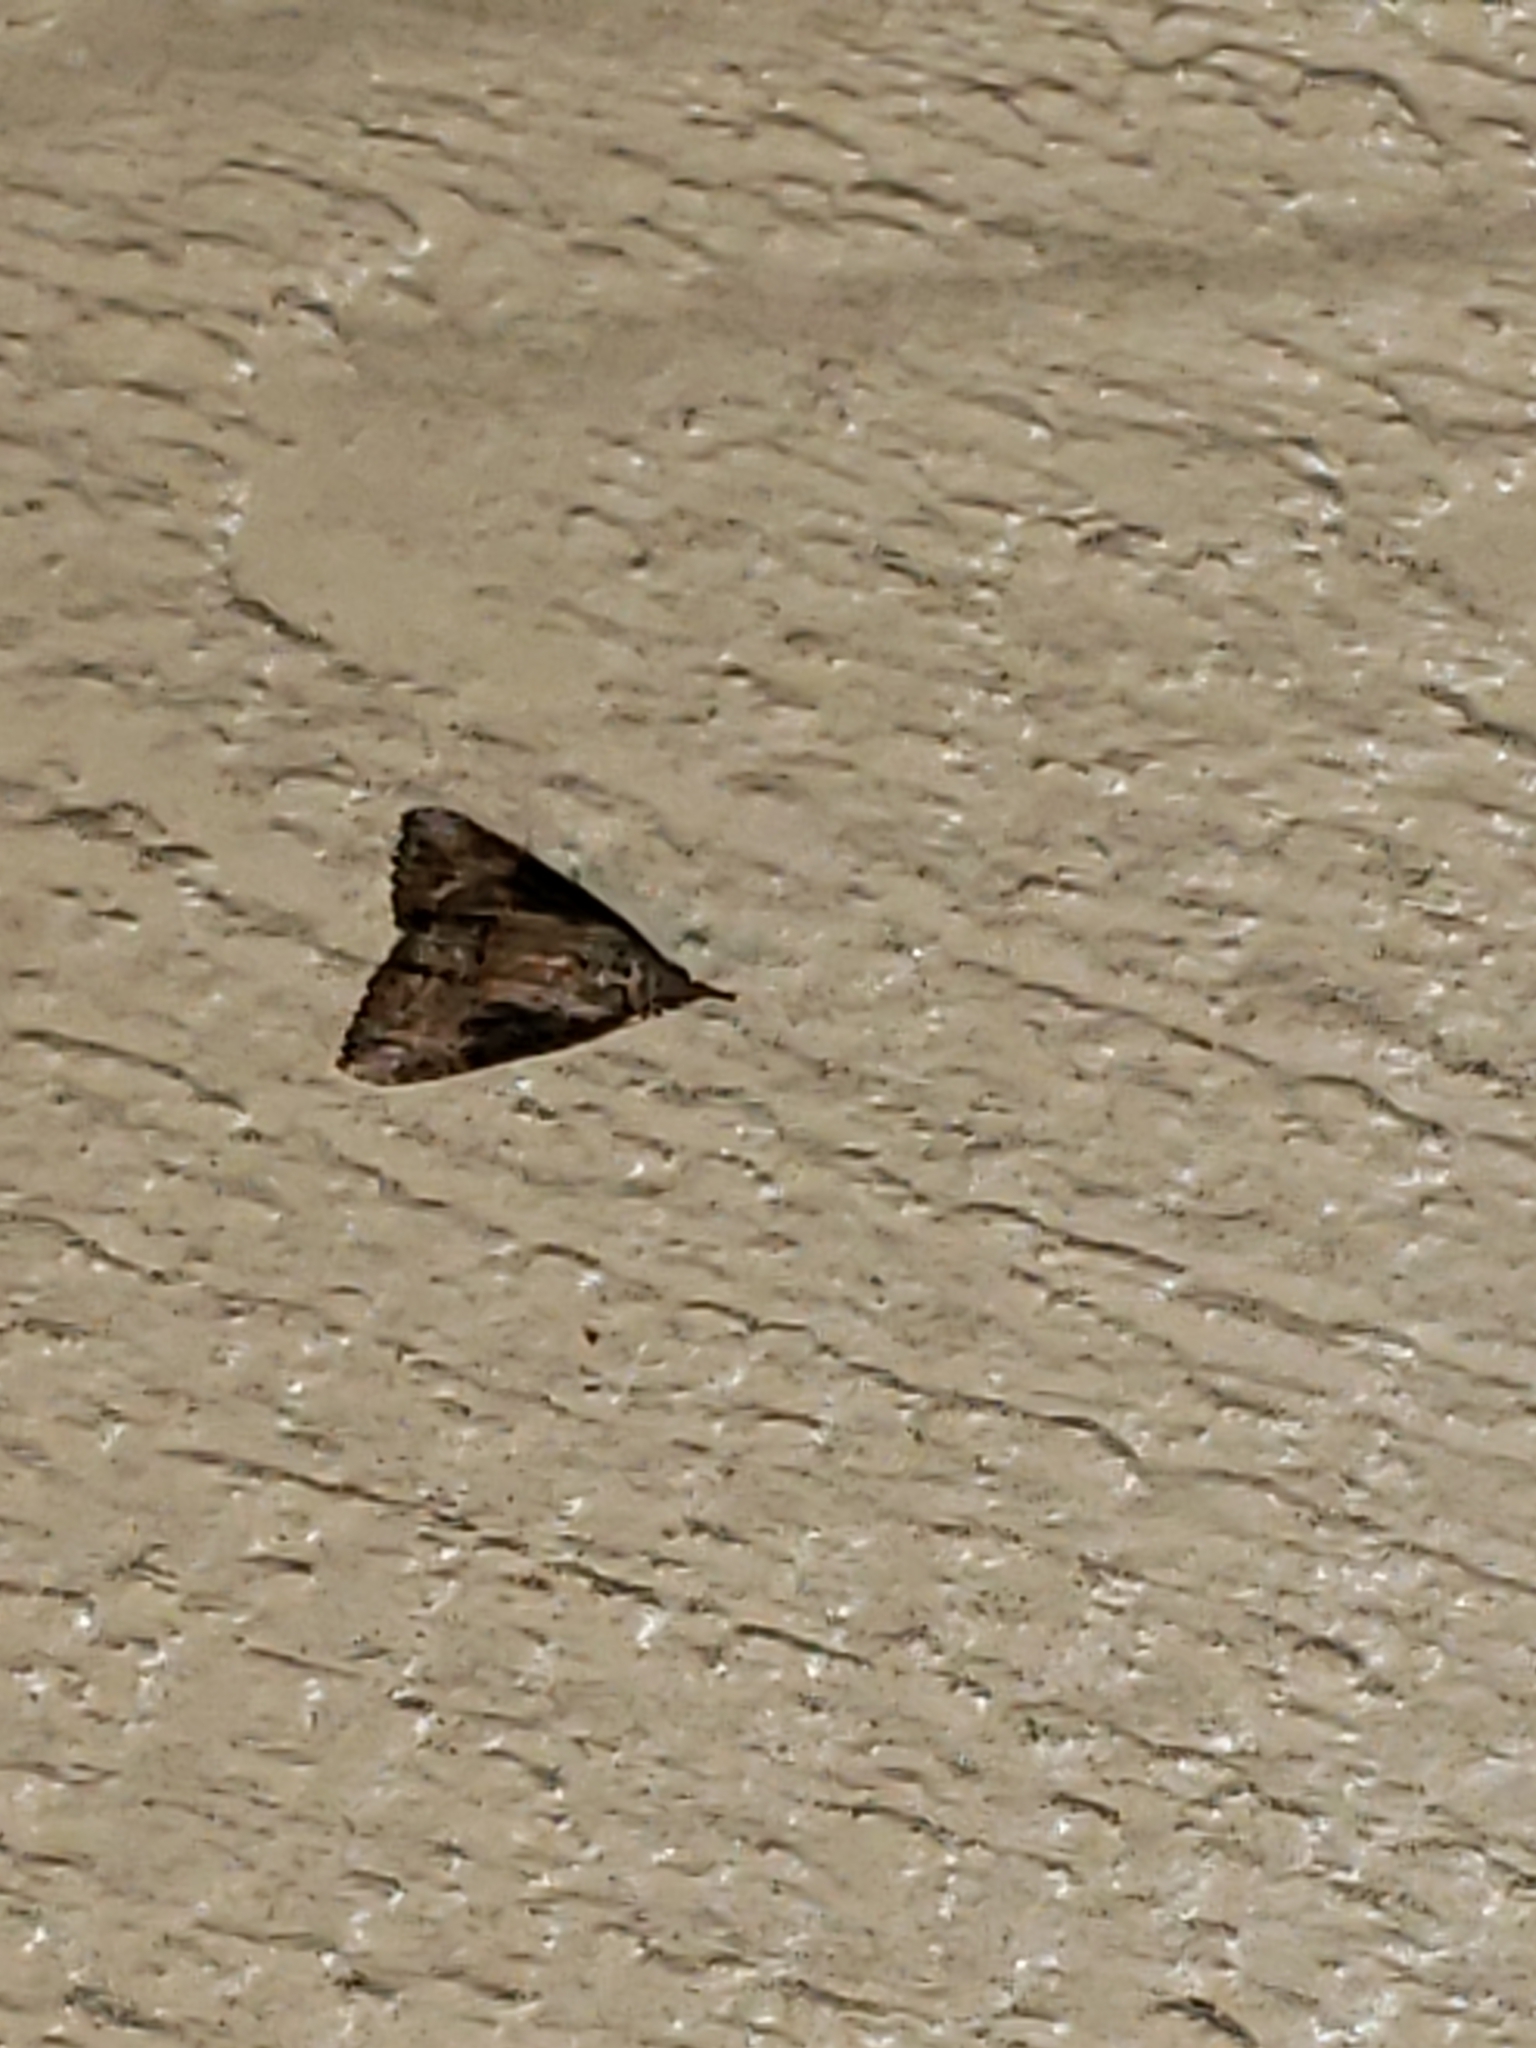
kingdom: Animalia
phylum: Arthropoda
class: Insecta
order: Lepidoptera
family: Erebidae
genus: Hypena
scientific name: Hypena scabra
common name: Green cloverworm
